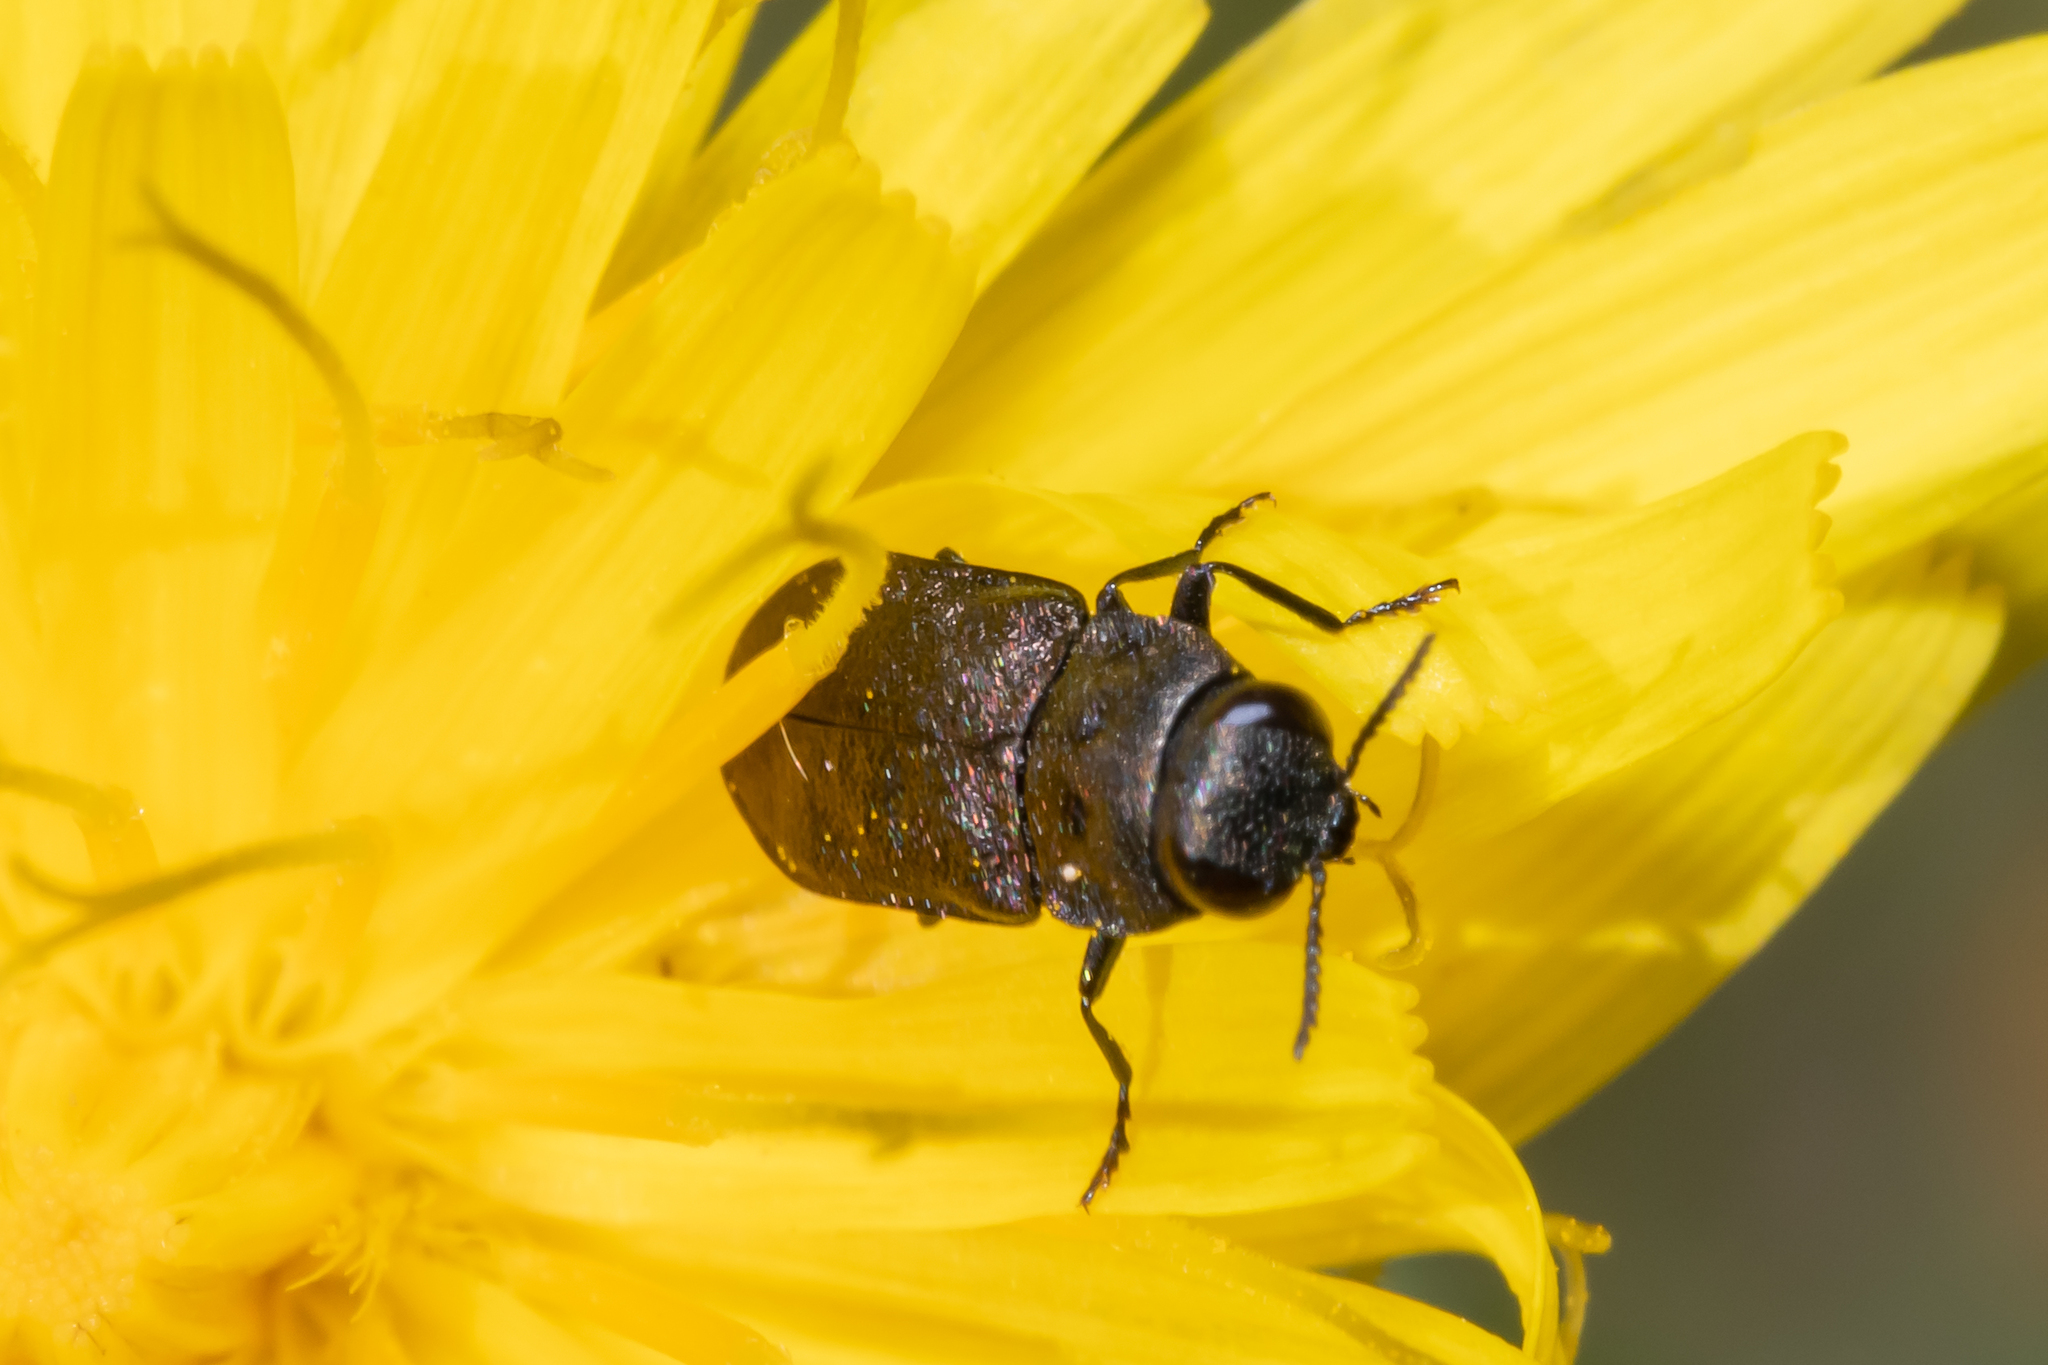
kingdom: Animalia
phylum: Arthropoda
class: Insecta
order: Coleoptera
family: Buprestidae
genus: Anthaxia
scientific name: Anthaxia quadripunctata
